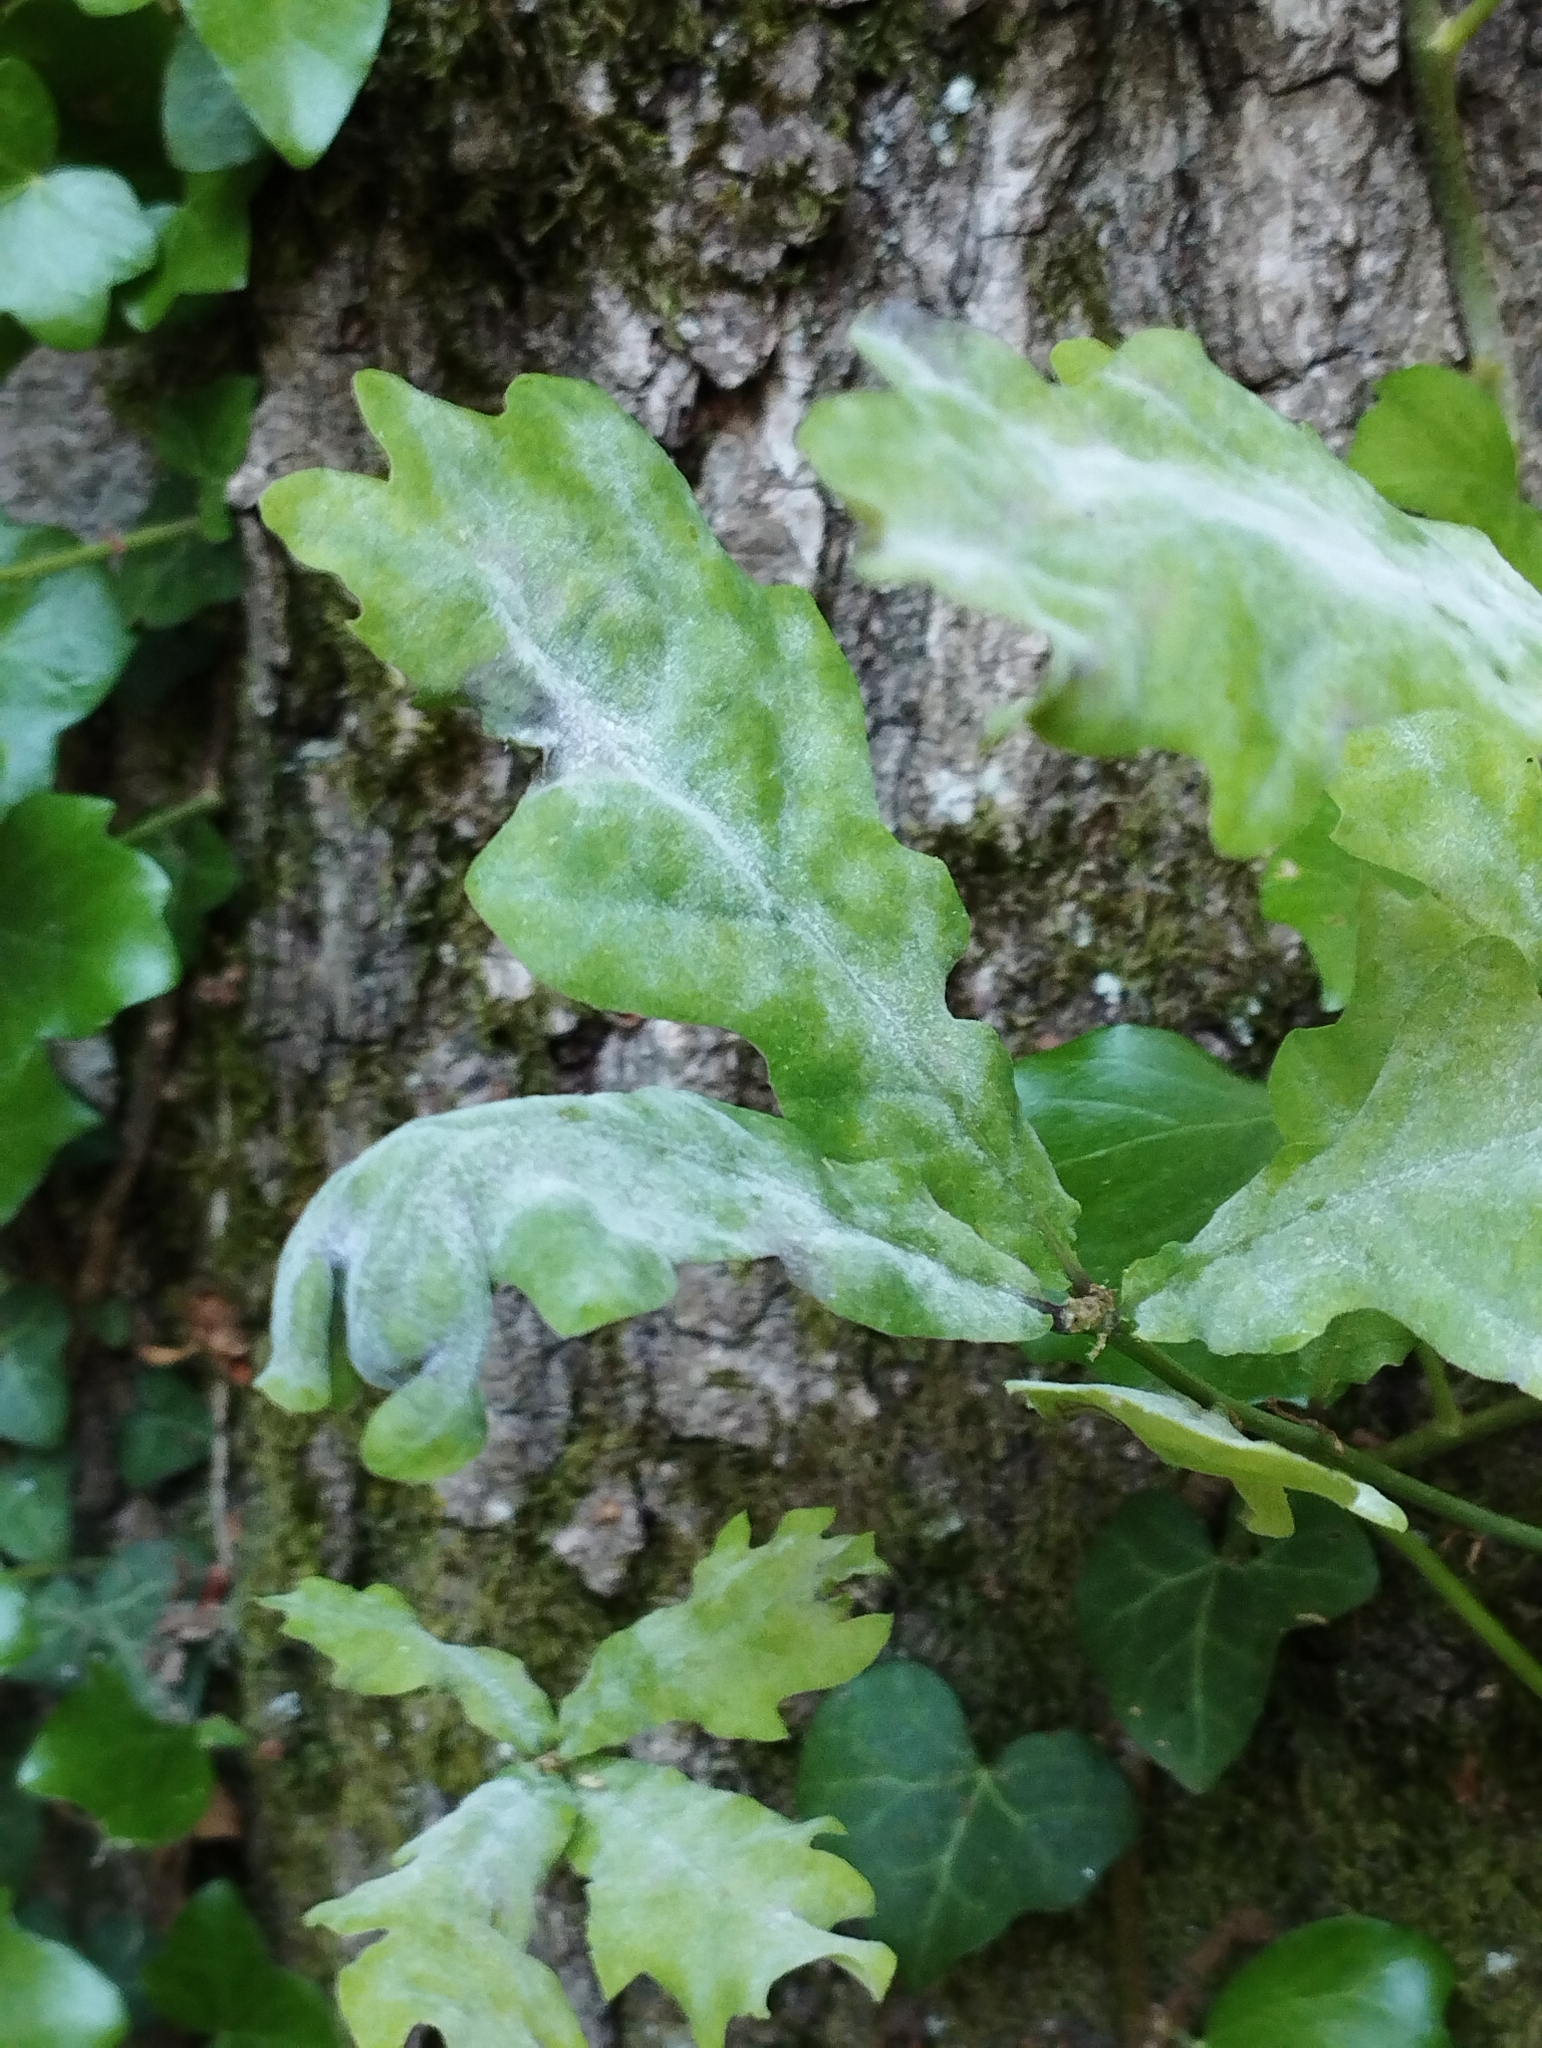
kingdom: Fungi
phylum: Ascomycota
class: Leotiomycetes
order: Helotiales
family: Erysiphaceae
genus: Erysiphe
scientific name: Erysiphe alphitoides
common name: Oak mildew
